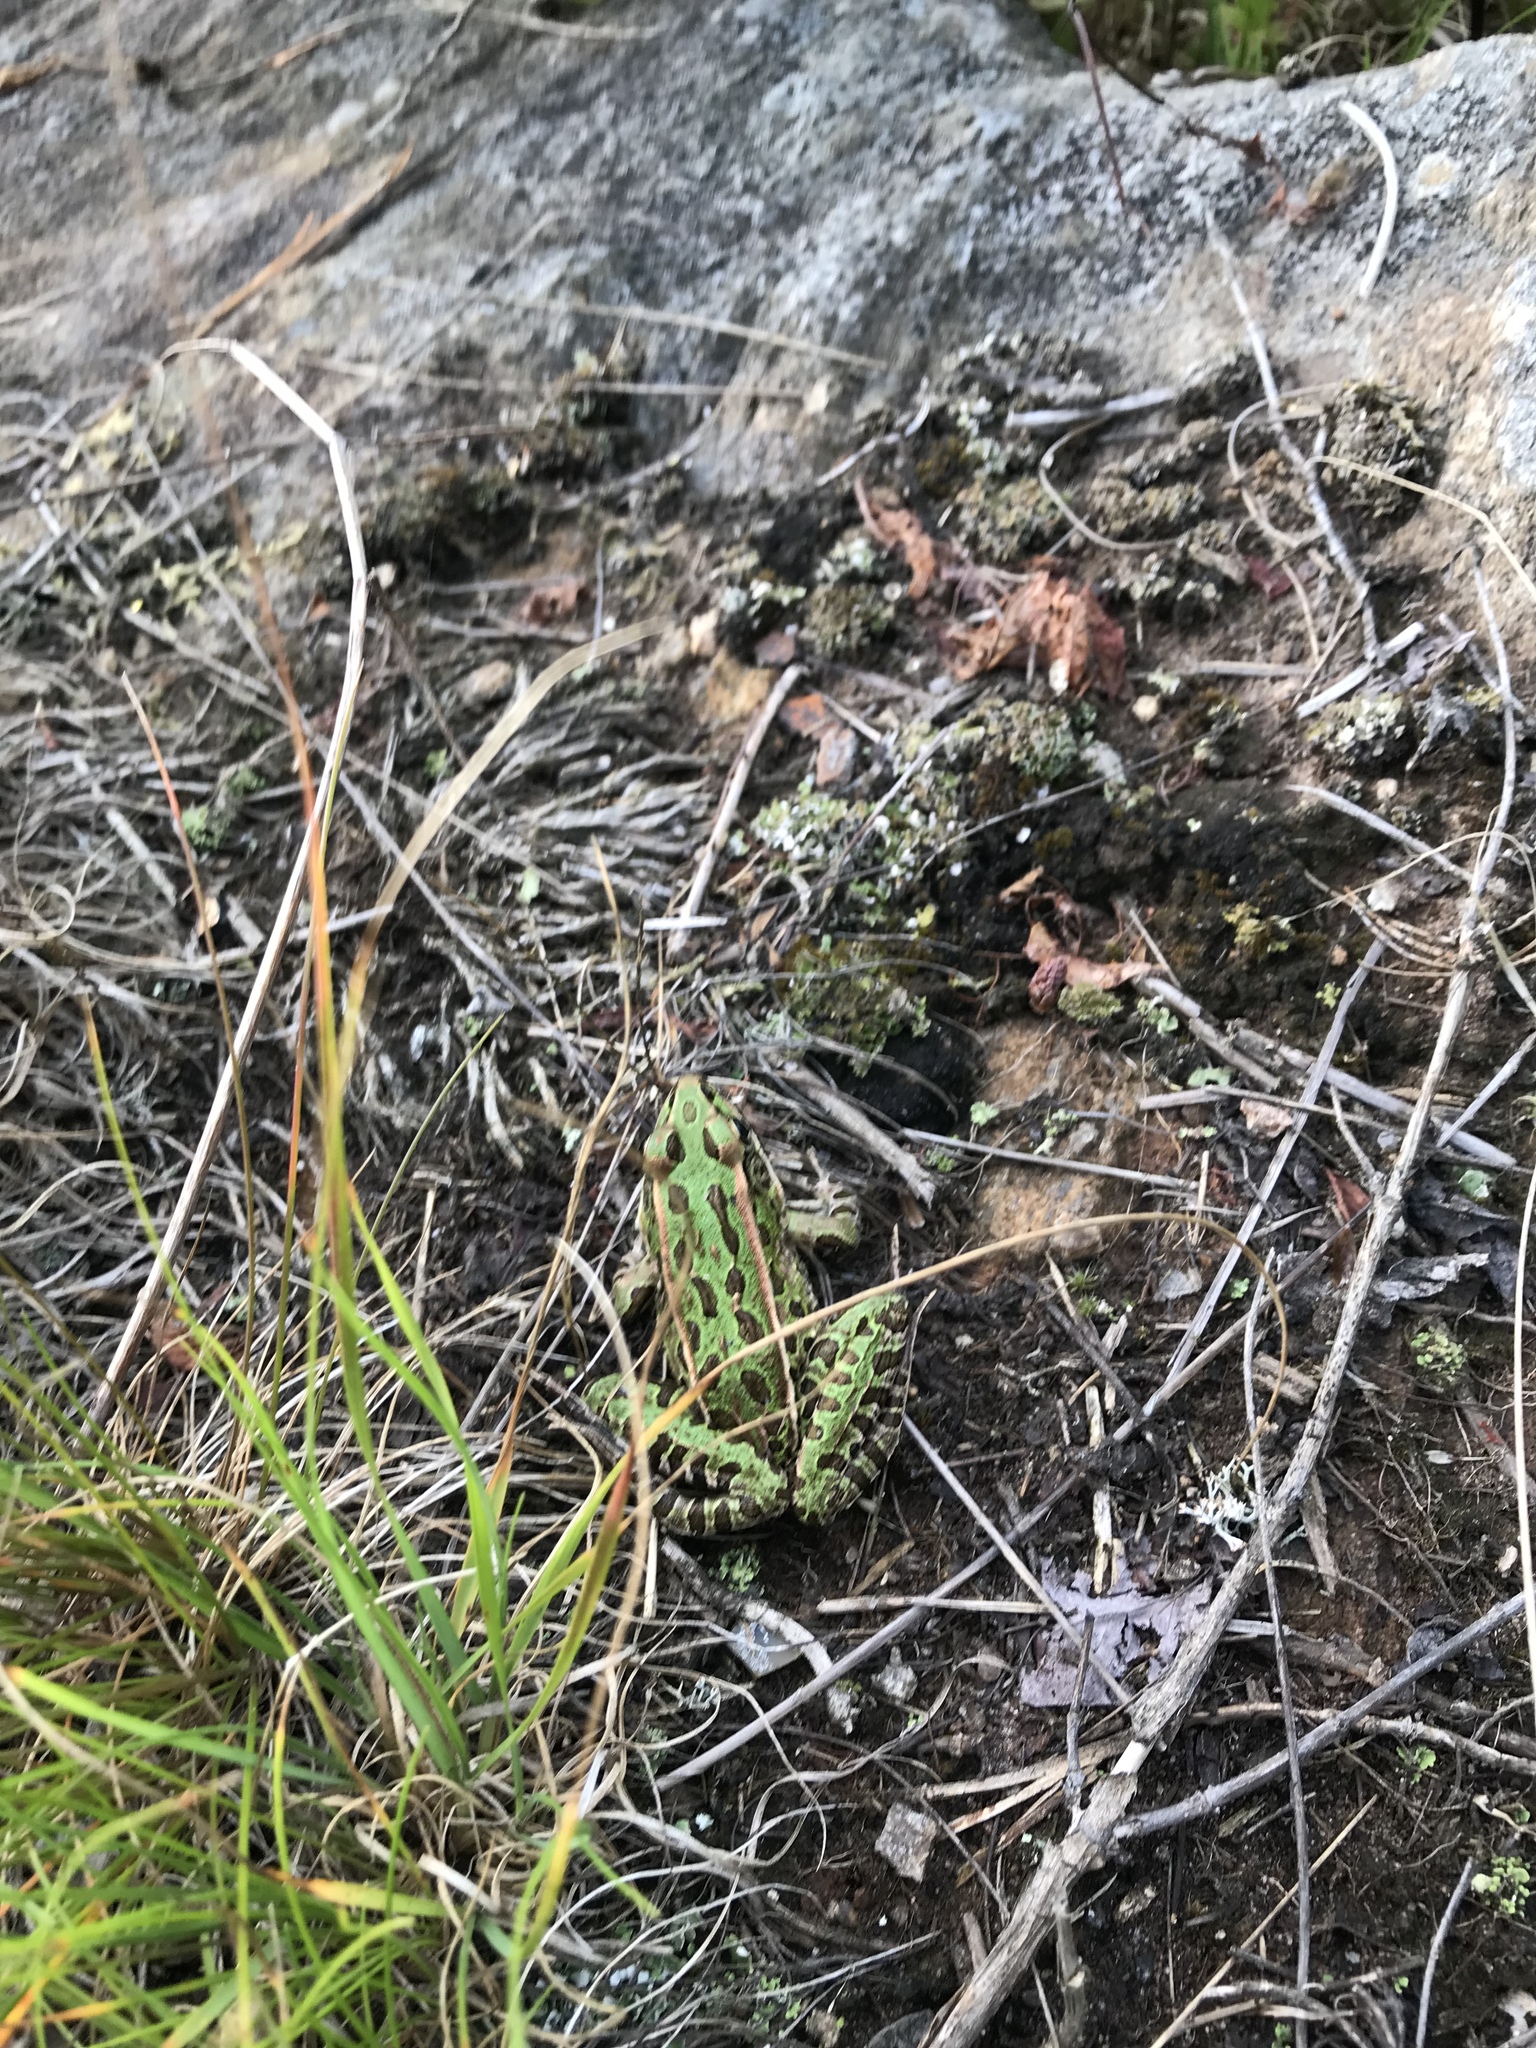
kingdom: Animalia
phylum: Chordata
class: Amphibia
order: Anura
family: Ranidae
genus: Lithobates
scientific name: Lithobates pipiens
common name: Northern leopard frog
